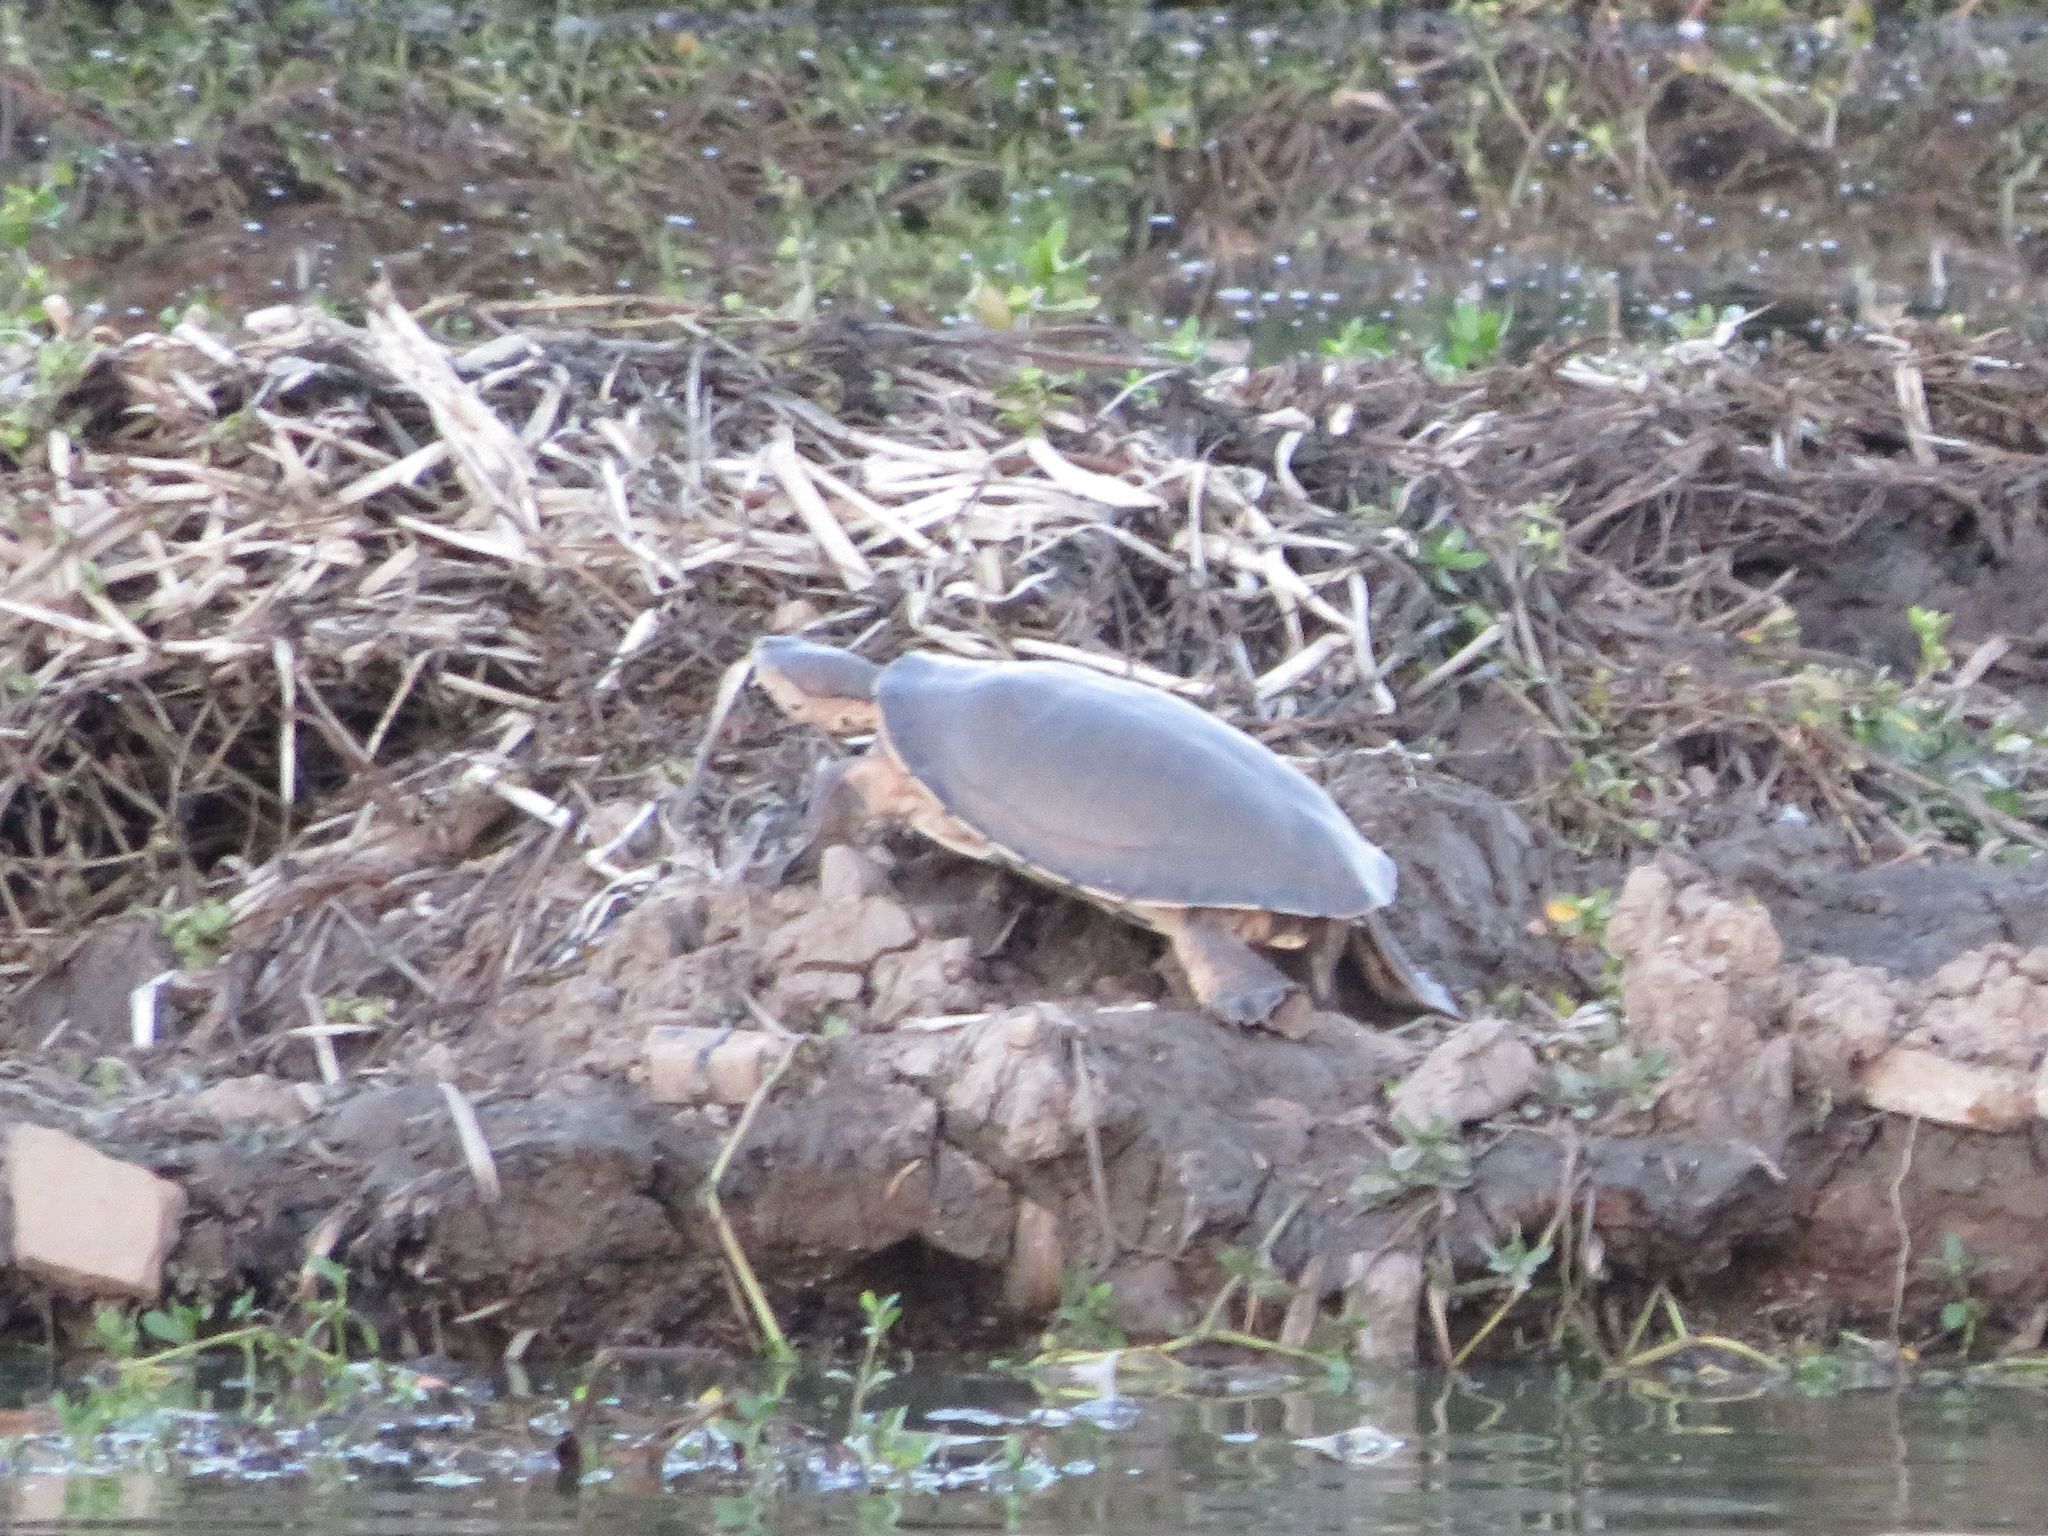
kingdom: Animalia
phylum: Chordata
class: Testudines
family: Chelidae
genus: Phrynops
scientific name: Phrynops hilarii
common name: Side-necked turtle of saint hillaire
